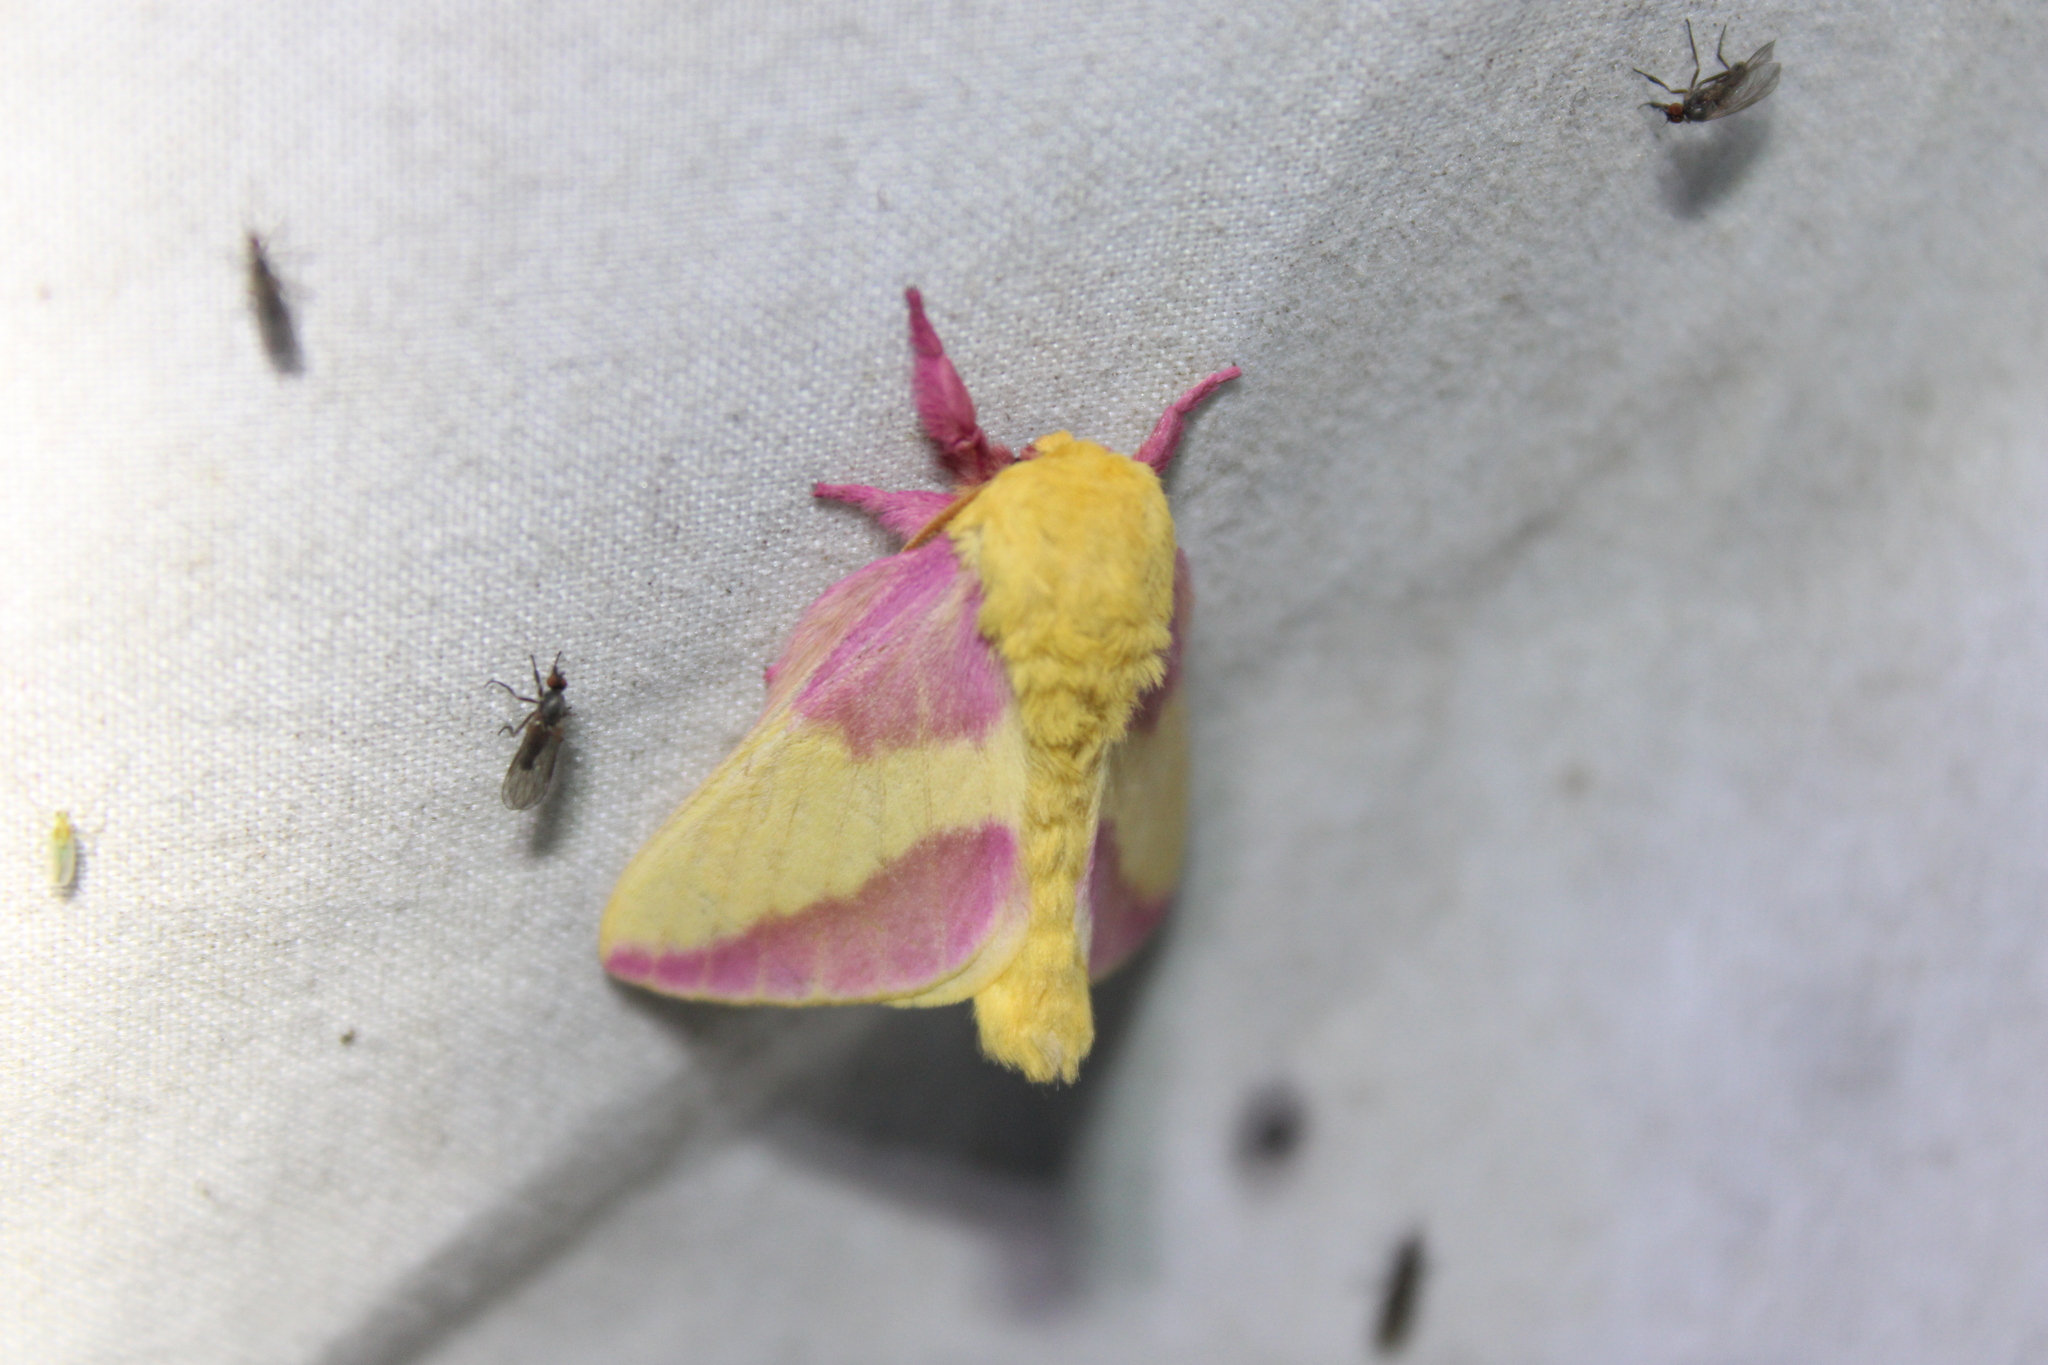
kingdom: Animalia
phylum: Arthropoda
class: Insecta
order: Lepidoptera
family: Saturniidae
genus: Dryocampa
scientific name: Dryocampa rubicunda
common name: Rosy maple moth
